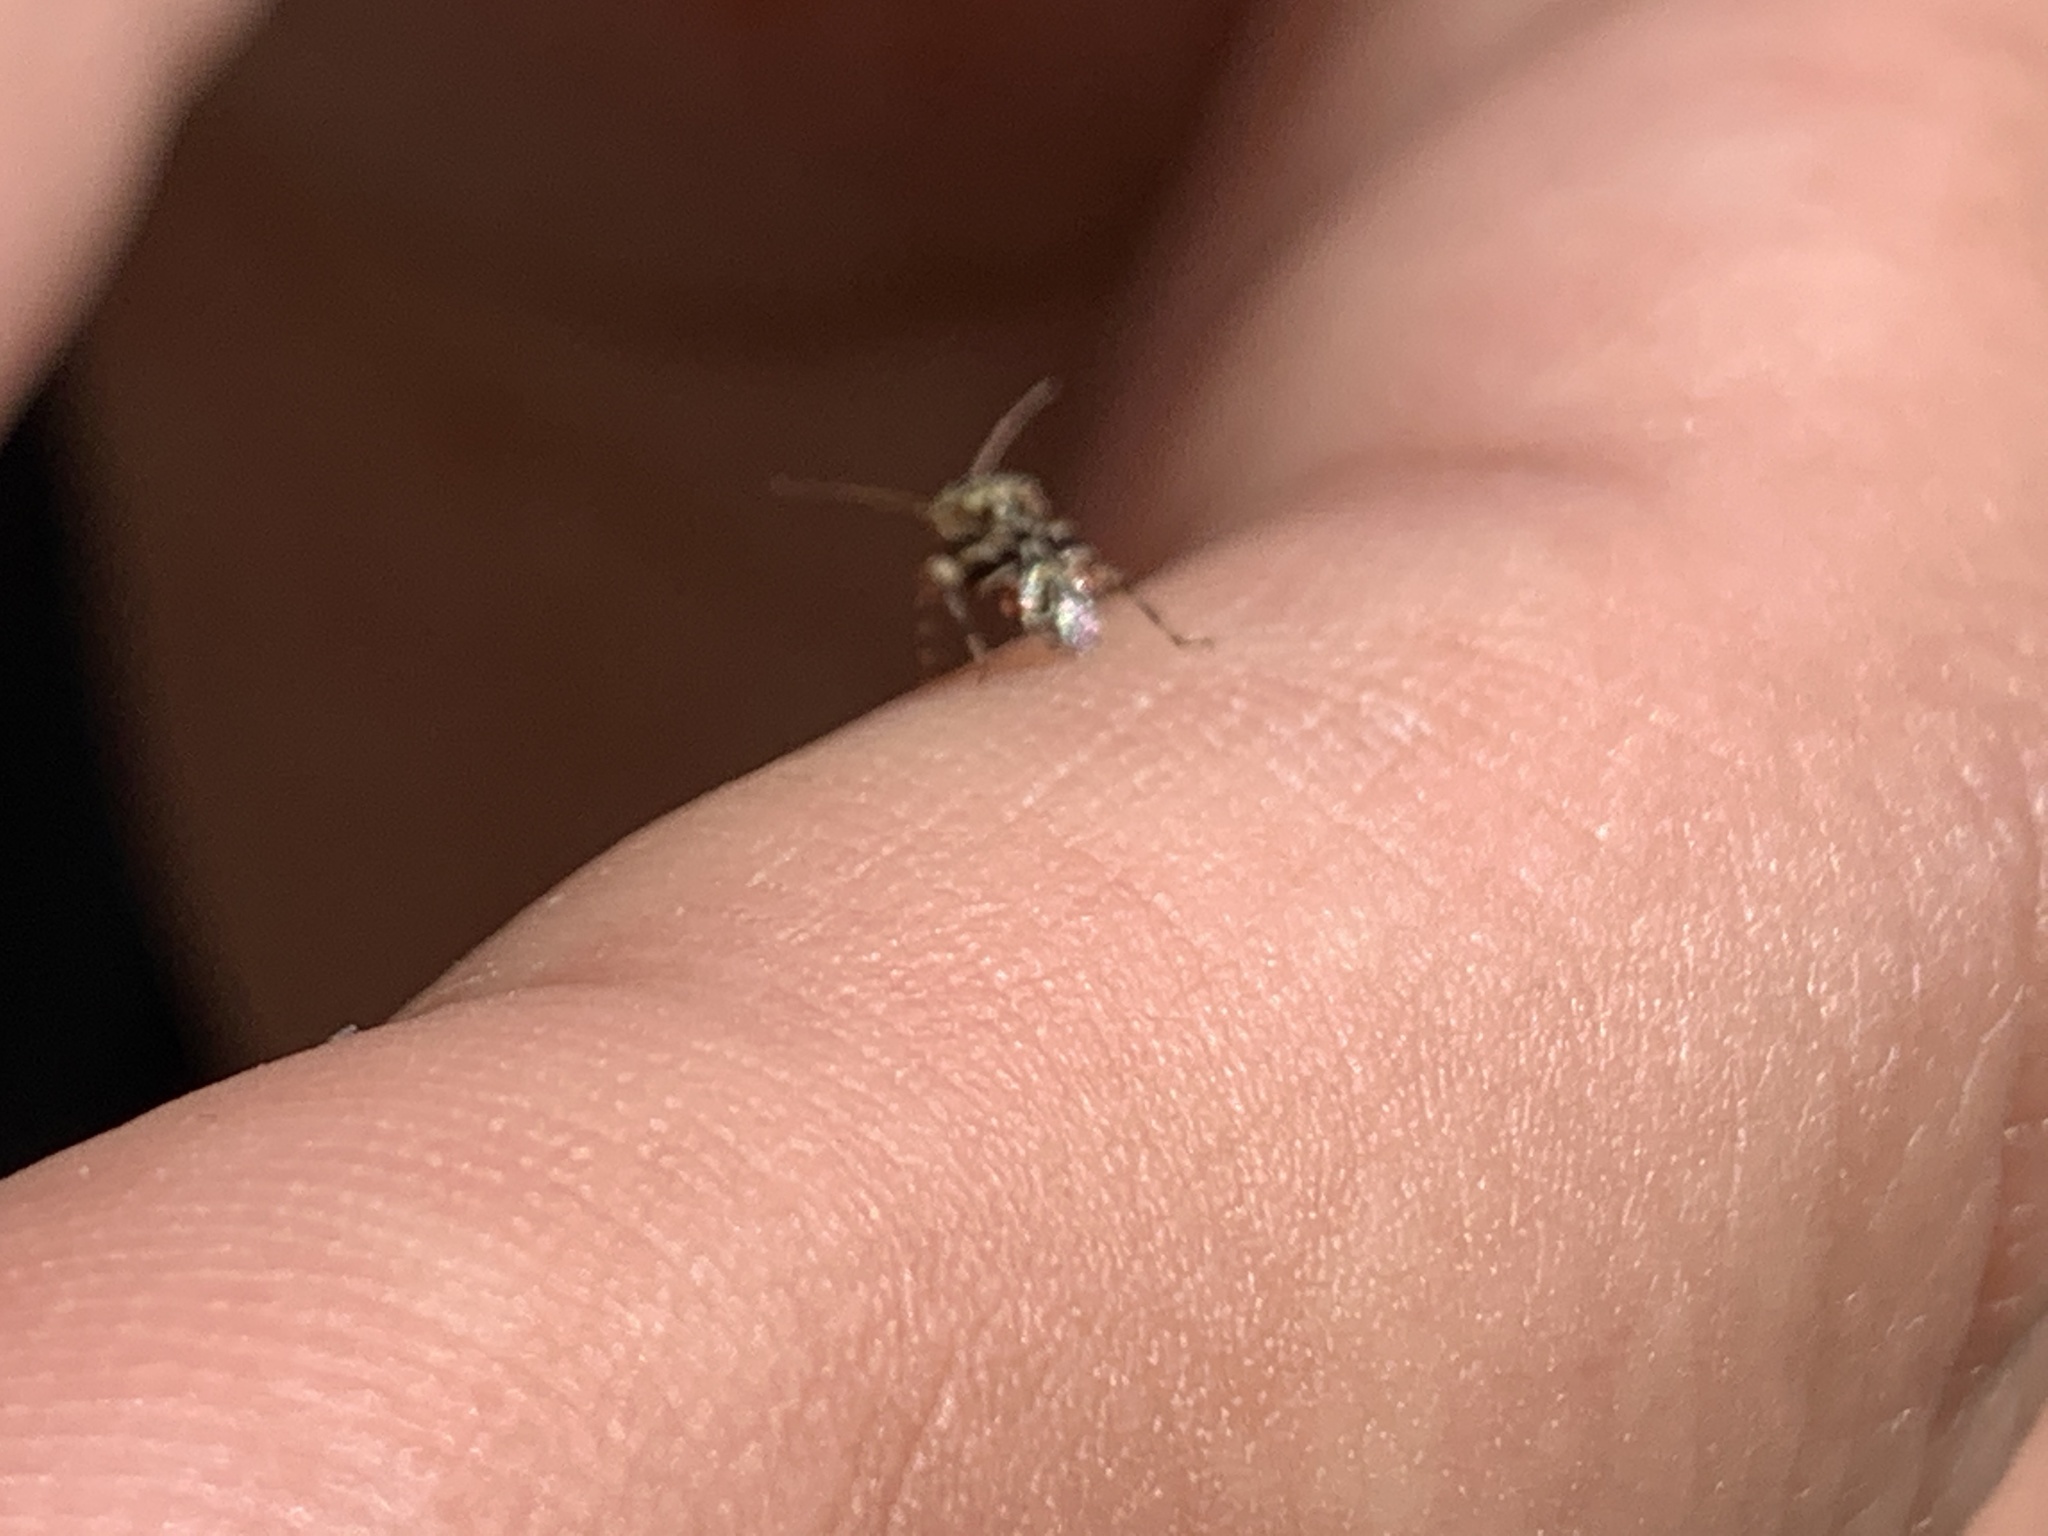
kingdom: Animalia
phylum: Arthropoda
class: Insecta
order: Hemiptera
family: Miridae
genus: Tropidosteptes
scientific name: Tropidosteptes quercicola
